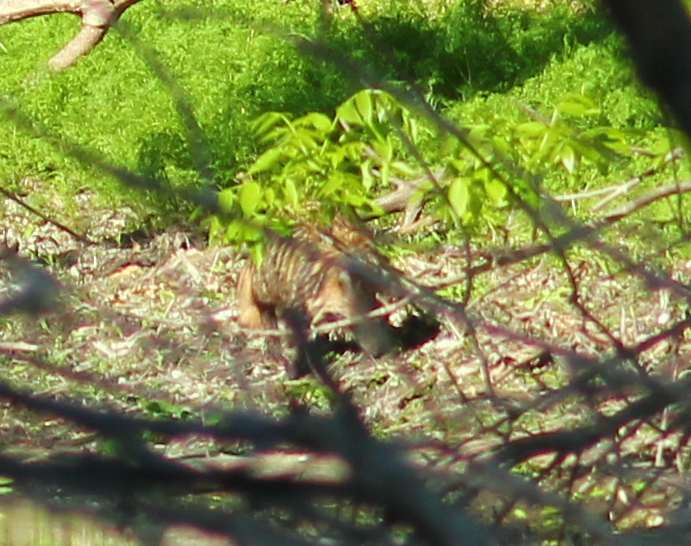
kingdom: Animalia
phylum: Chordata
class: Mammalia
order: Carnivora
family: Canidae
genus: Nyctereutes
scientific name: Nyctereutes procyonoides
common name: Raccoon dog
